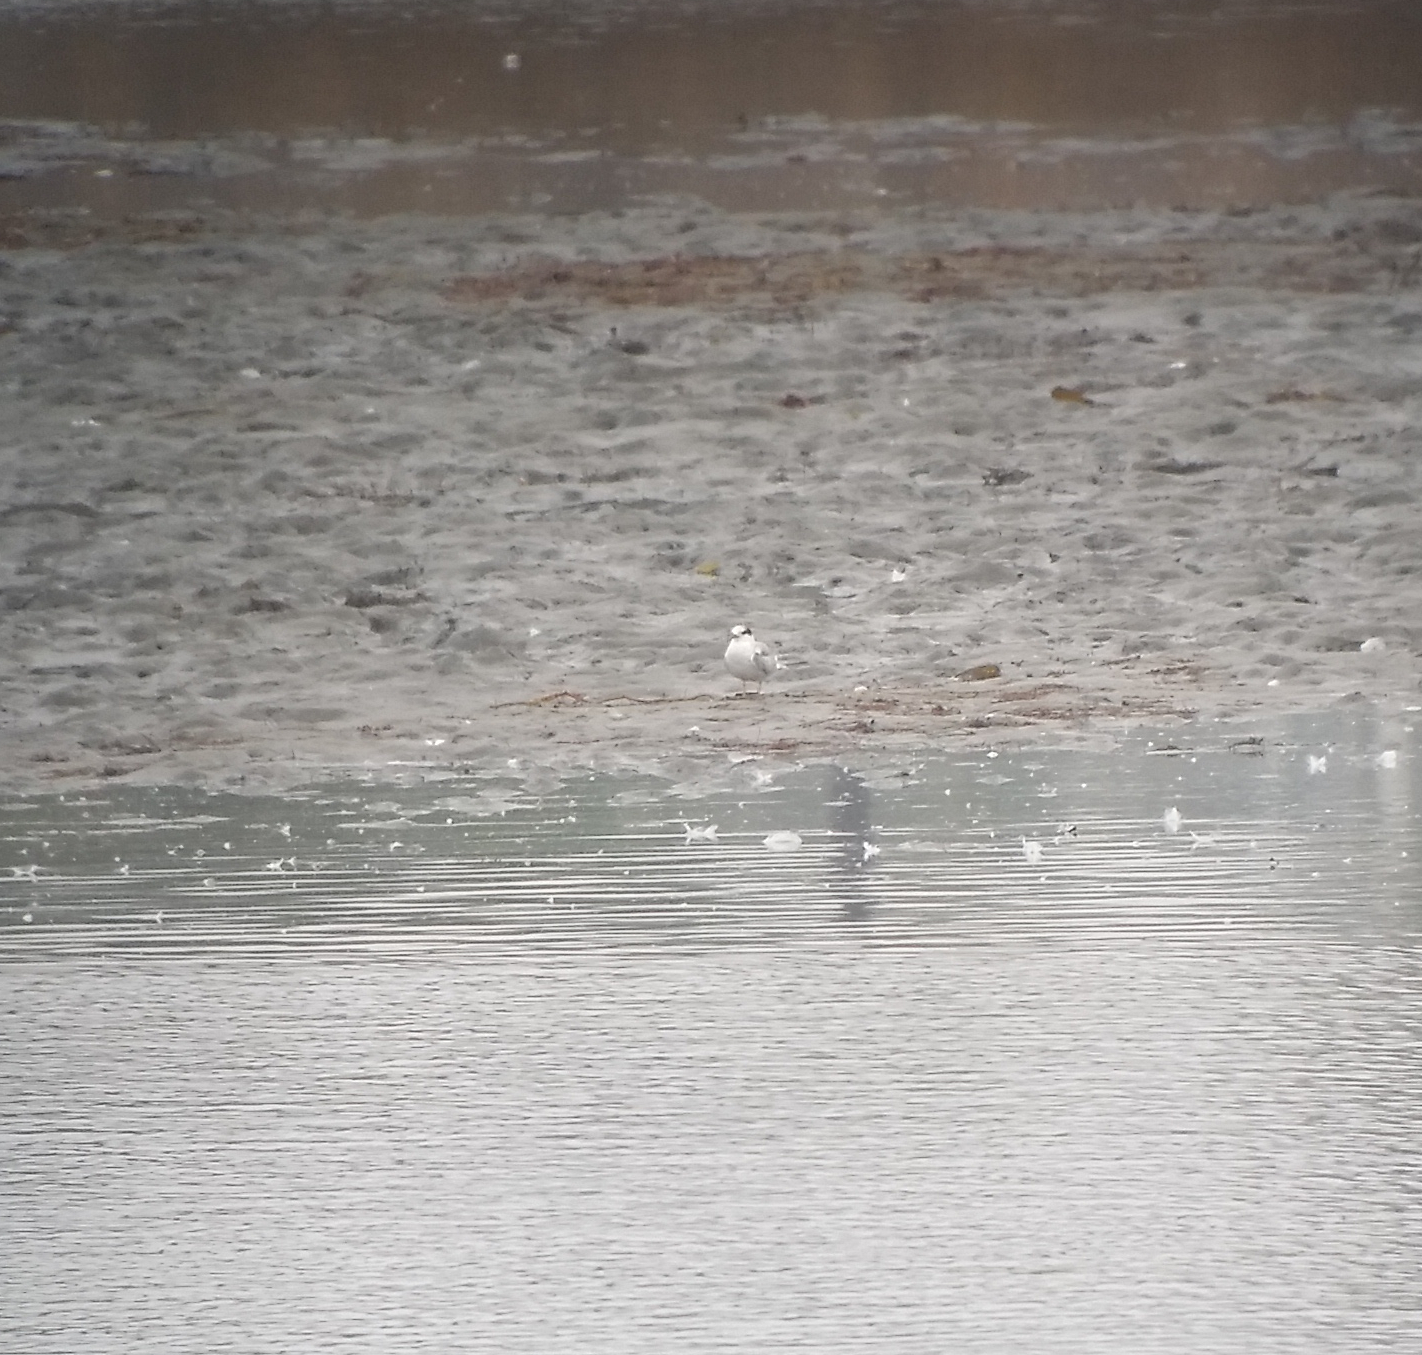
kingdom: Animalia
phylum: Chordata
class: Aves
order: Charadriiformes
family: Laridae
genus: Sterna
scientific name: Sterna hirundo
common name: Common tern
